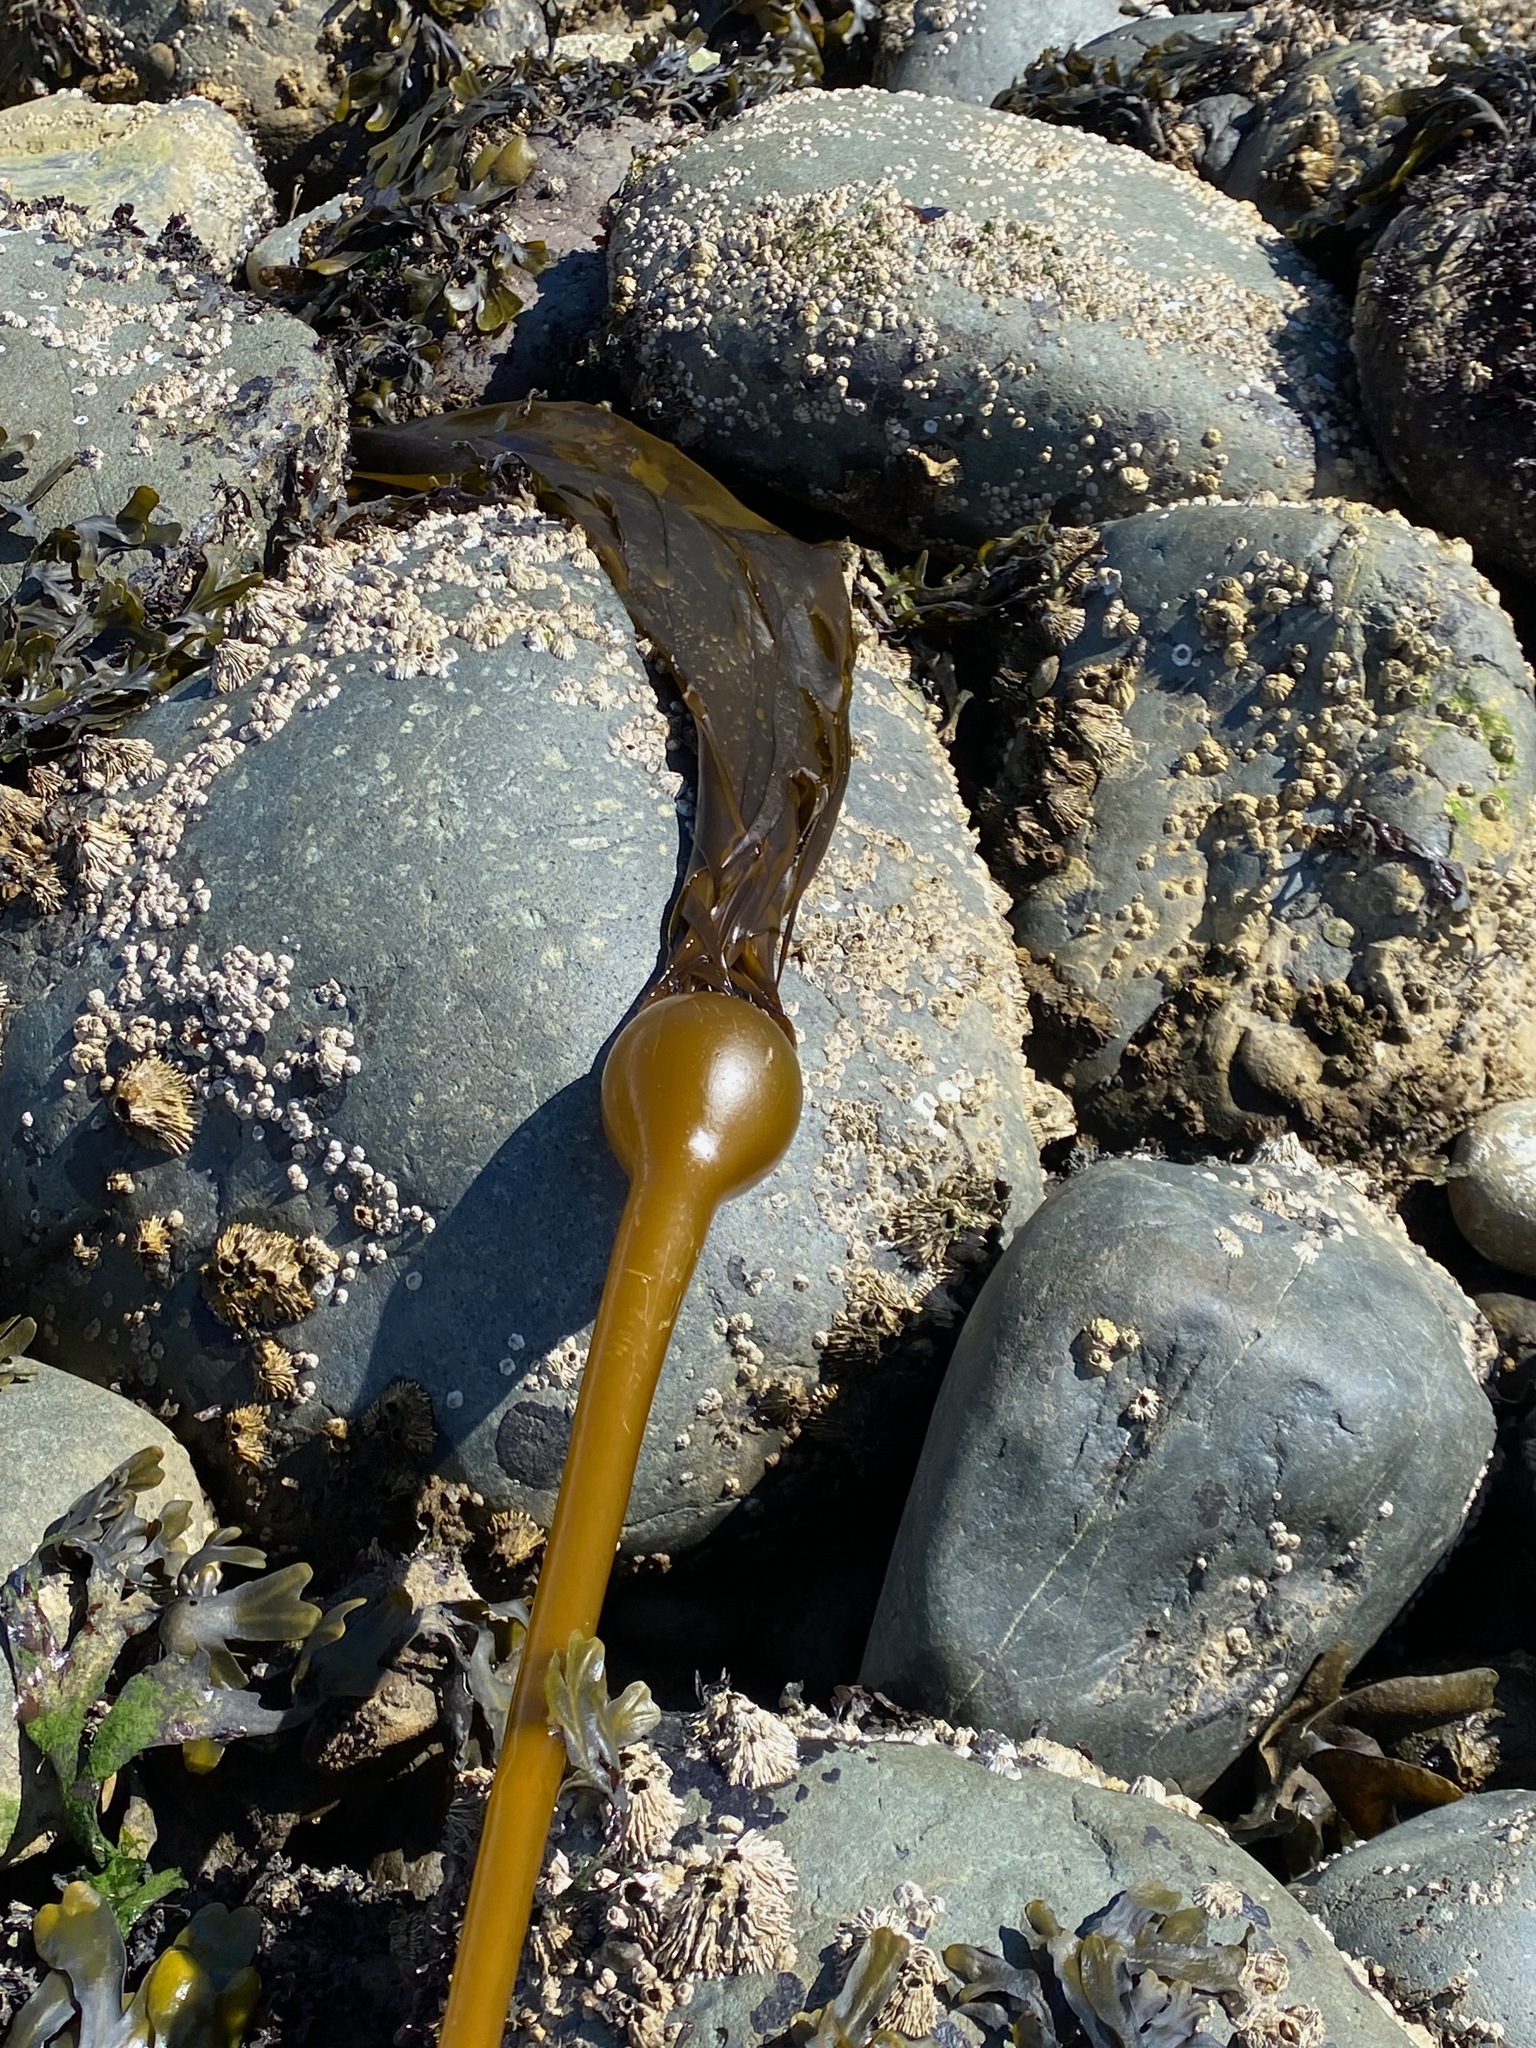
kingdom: Chromista
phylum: Ochrophyta
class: Phaeophyceae
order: Laminariales
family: Laminariaceae
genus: Nereocystis
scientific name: Nereocystis luetkeana
